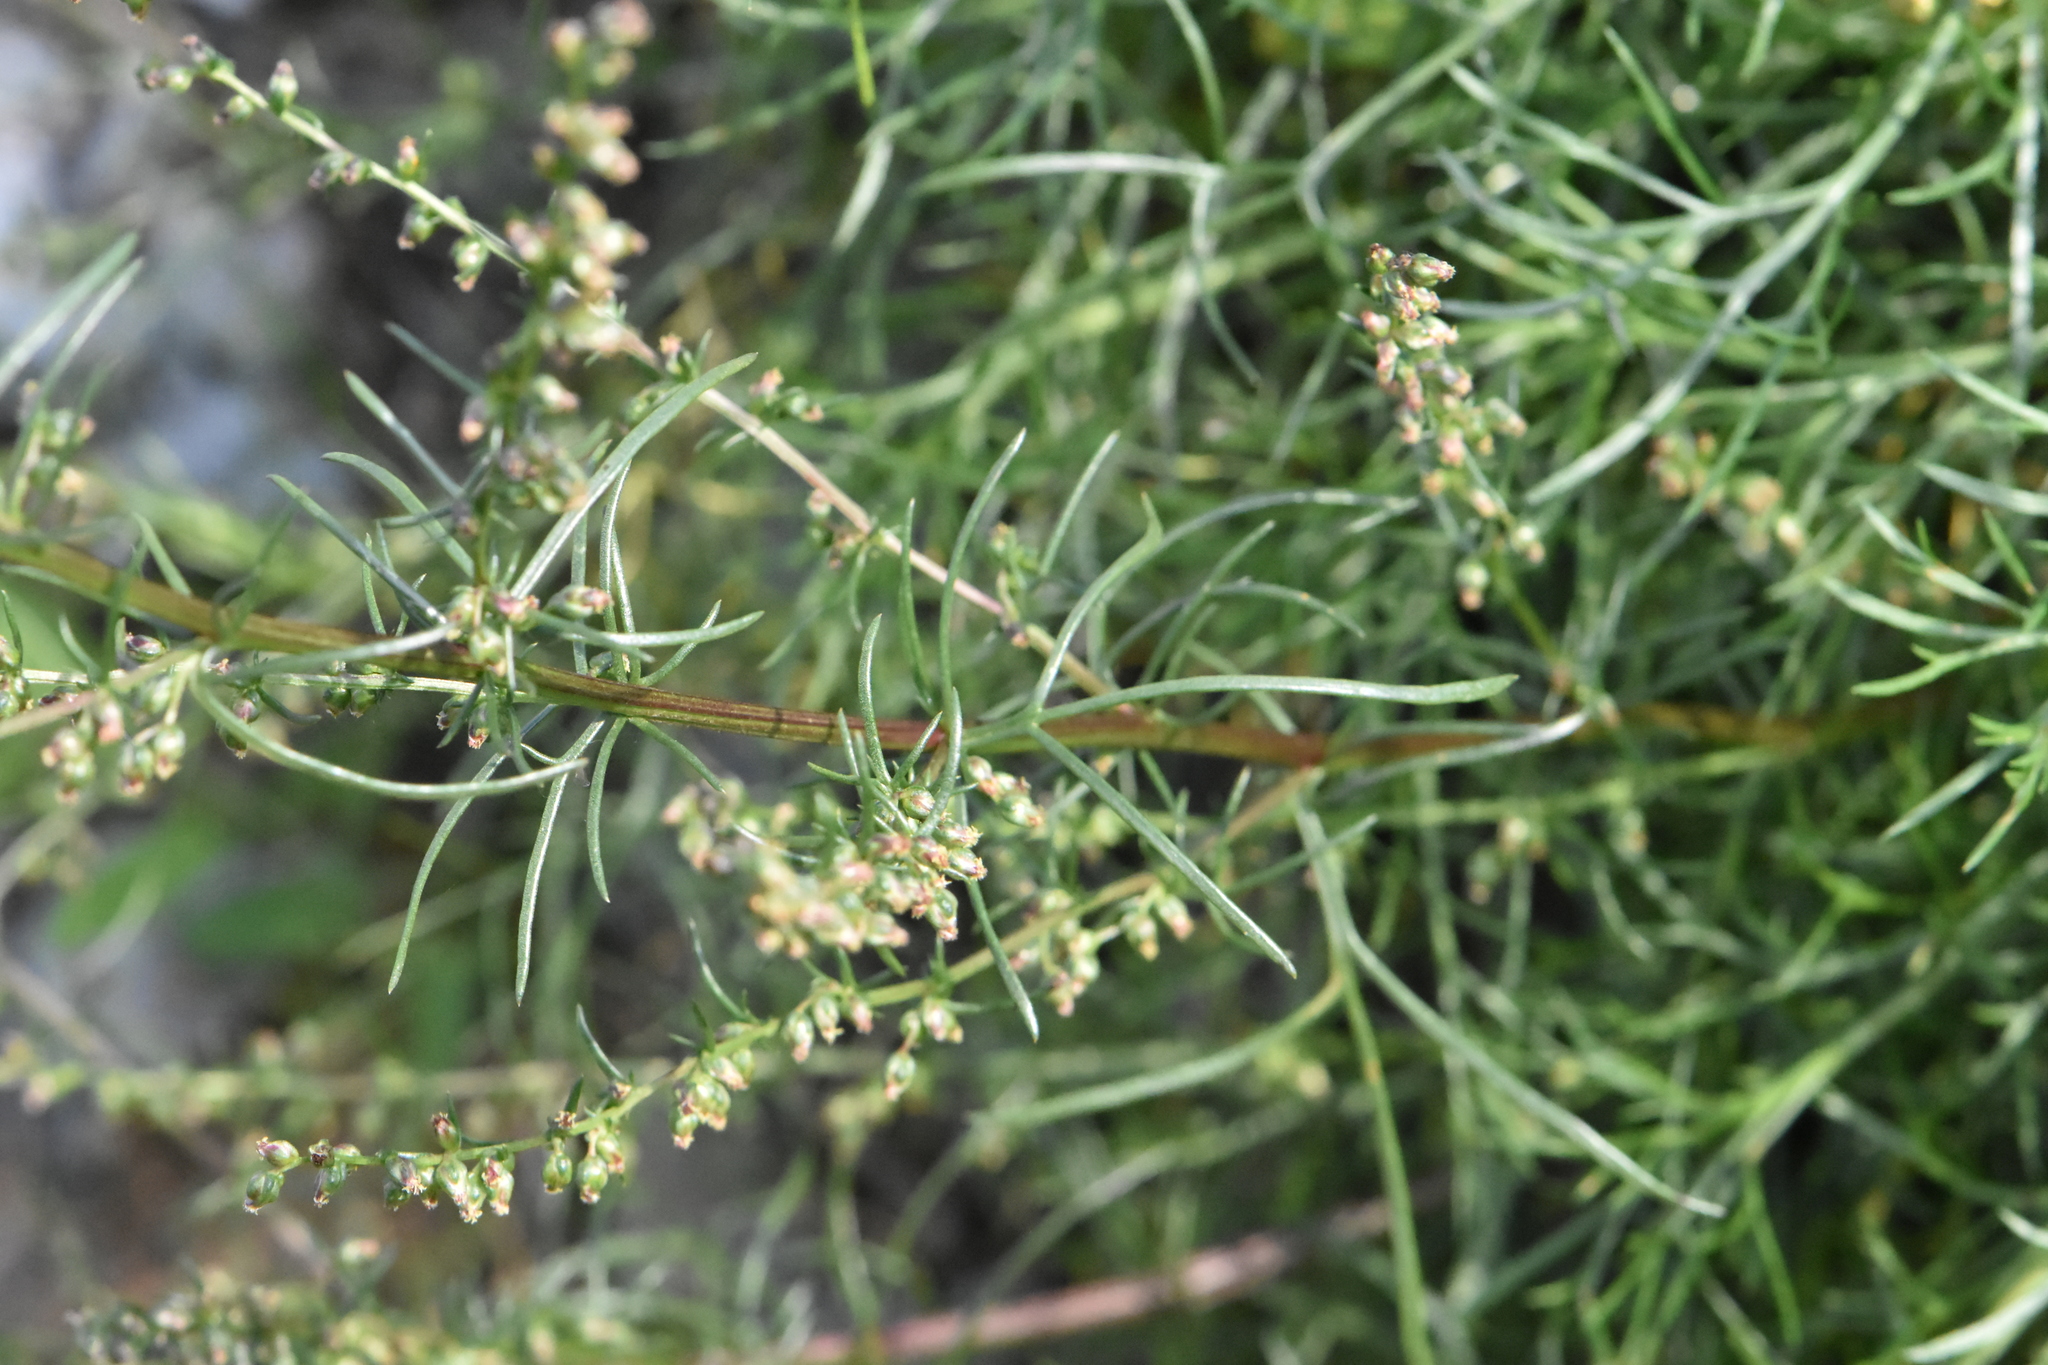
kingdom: Plantae
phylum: Tracheophyta
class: Magnoliopsida
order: Asterales
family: Asteraceae
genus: Artemisia
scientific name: Artemisia campestris
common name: Field wormwood
